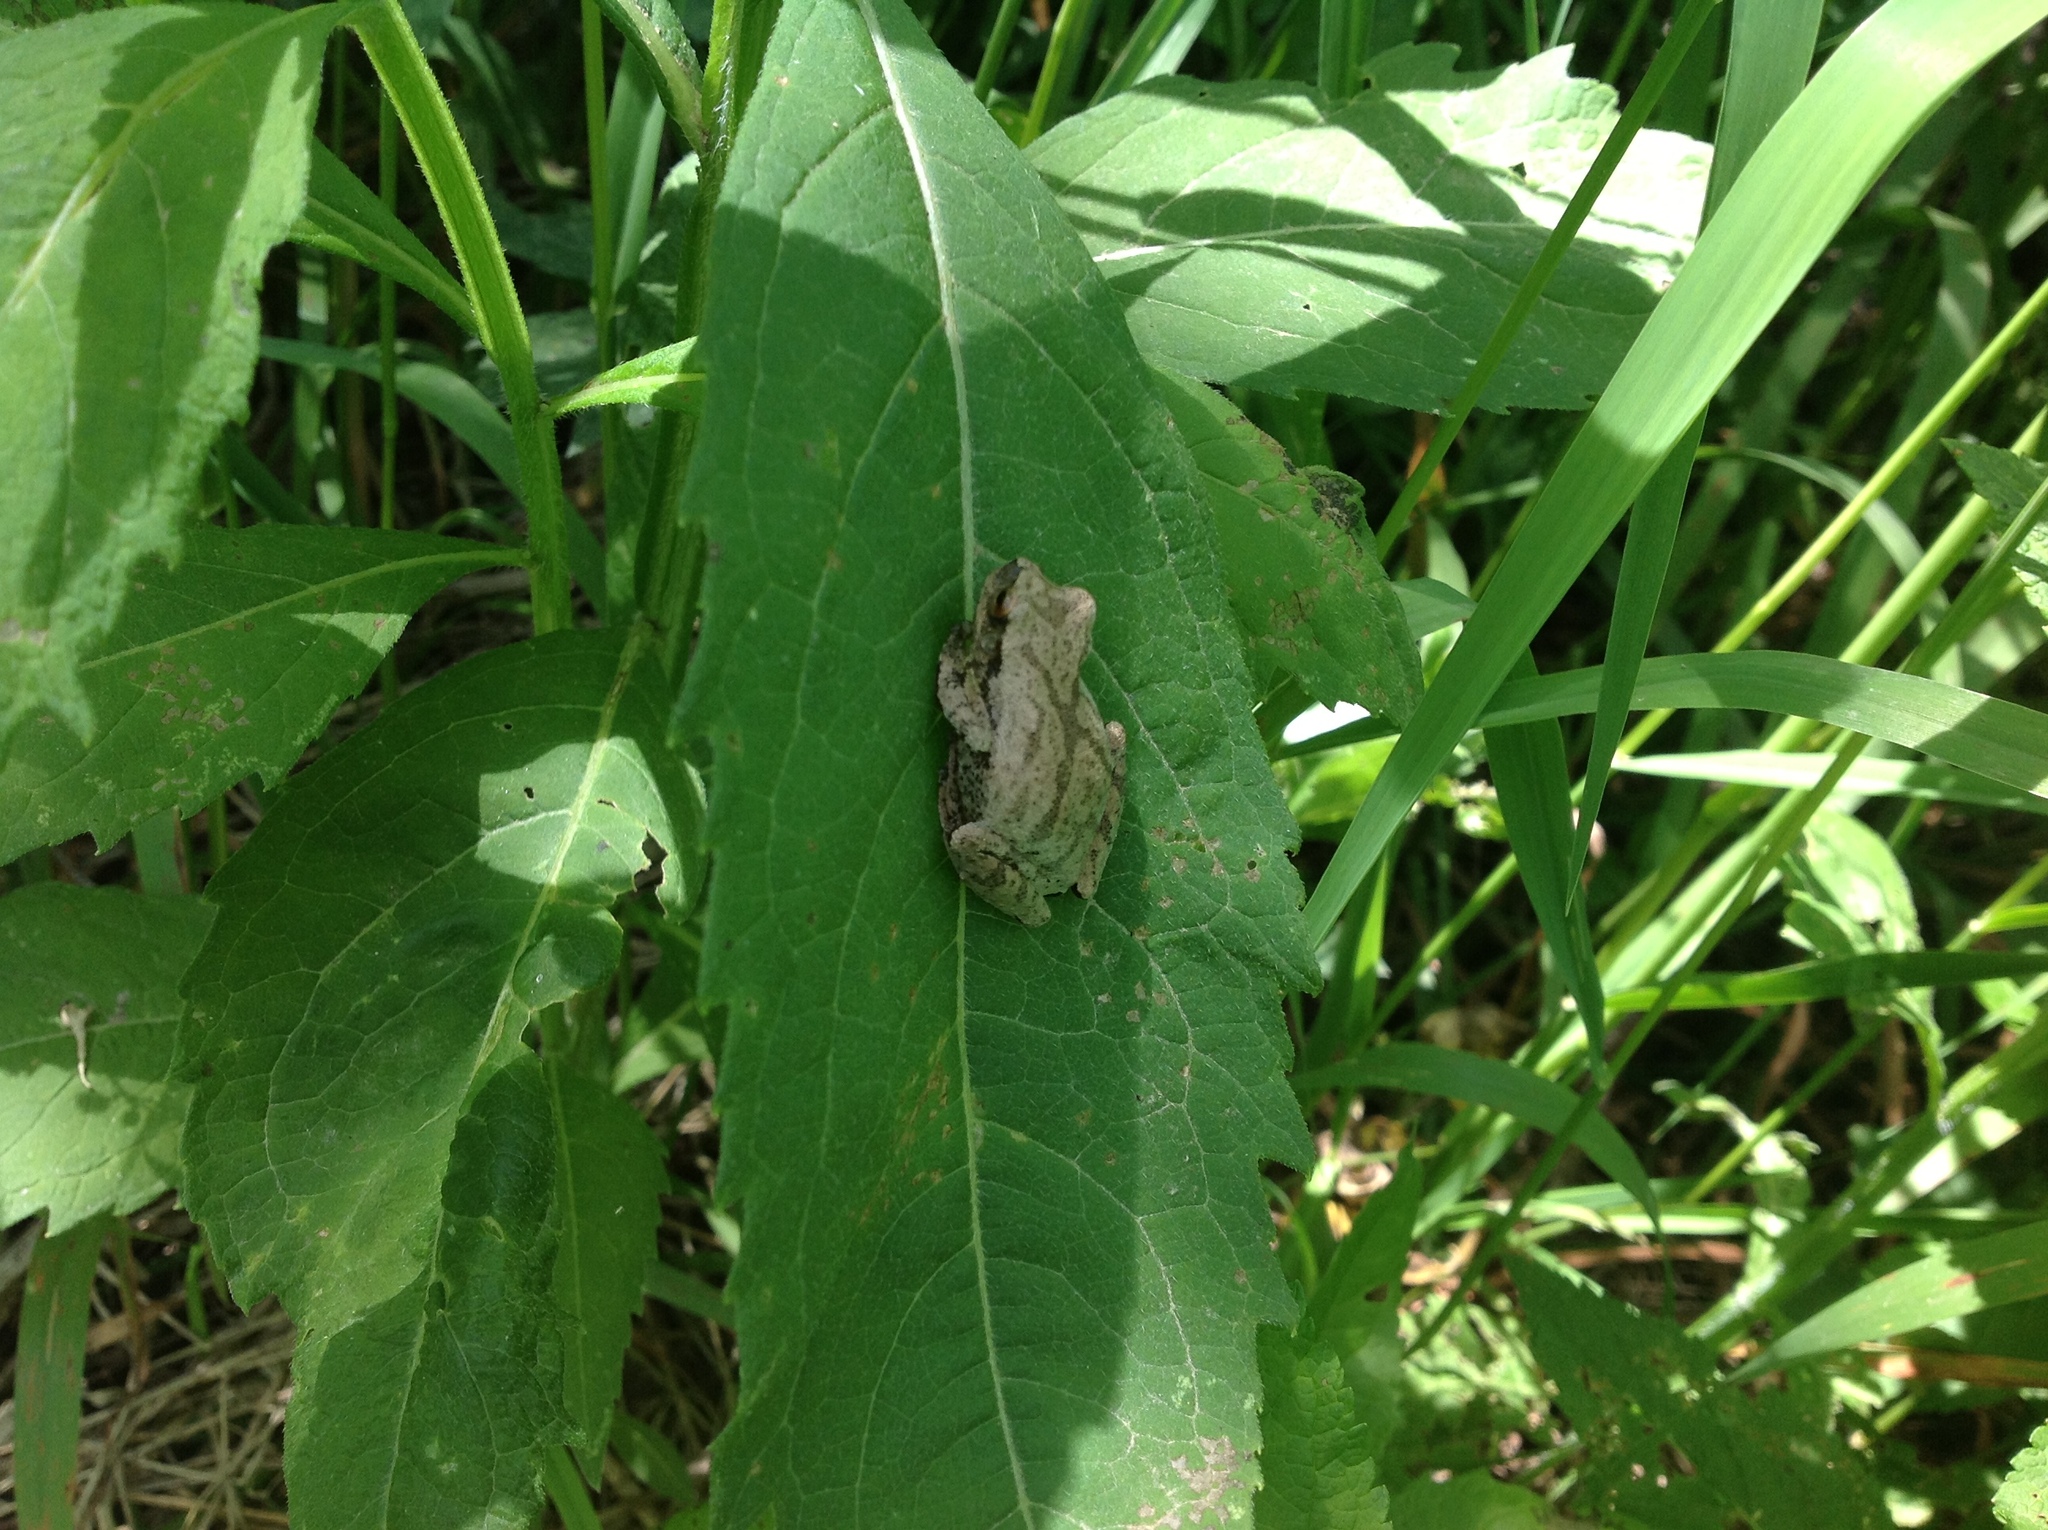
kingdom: Animalia
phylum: Chordata
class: Amphibia
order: Anura
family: Hylidae
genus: Pseudacris
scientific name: Pseudacris crucifer
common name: Spring peeper
